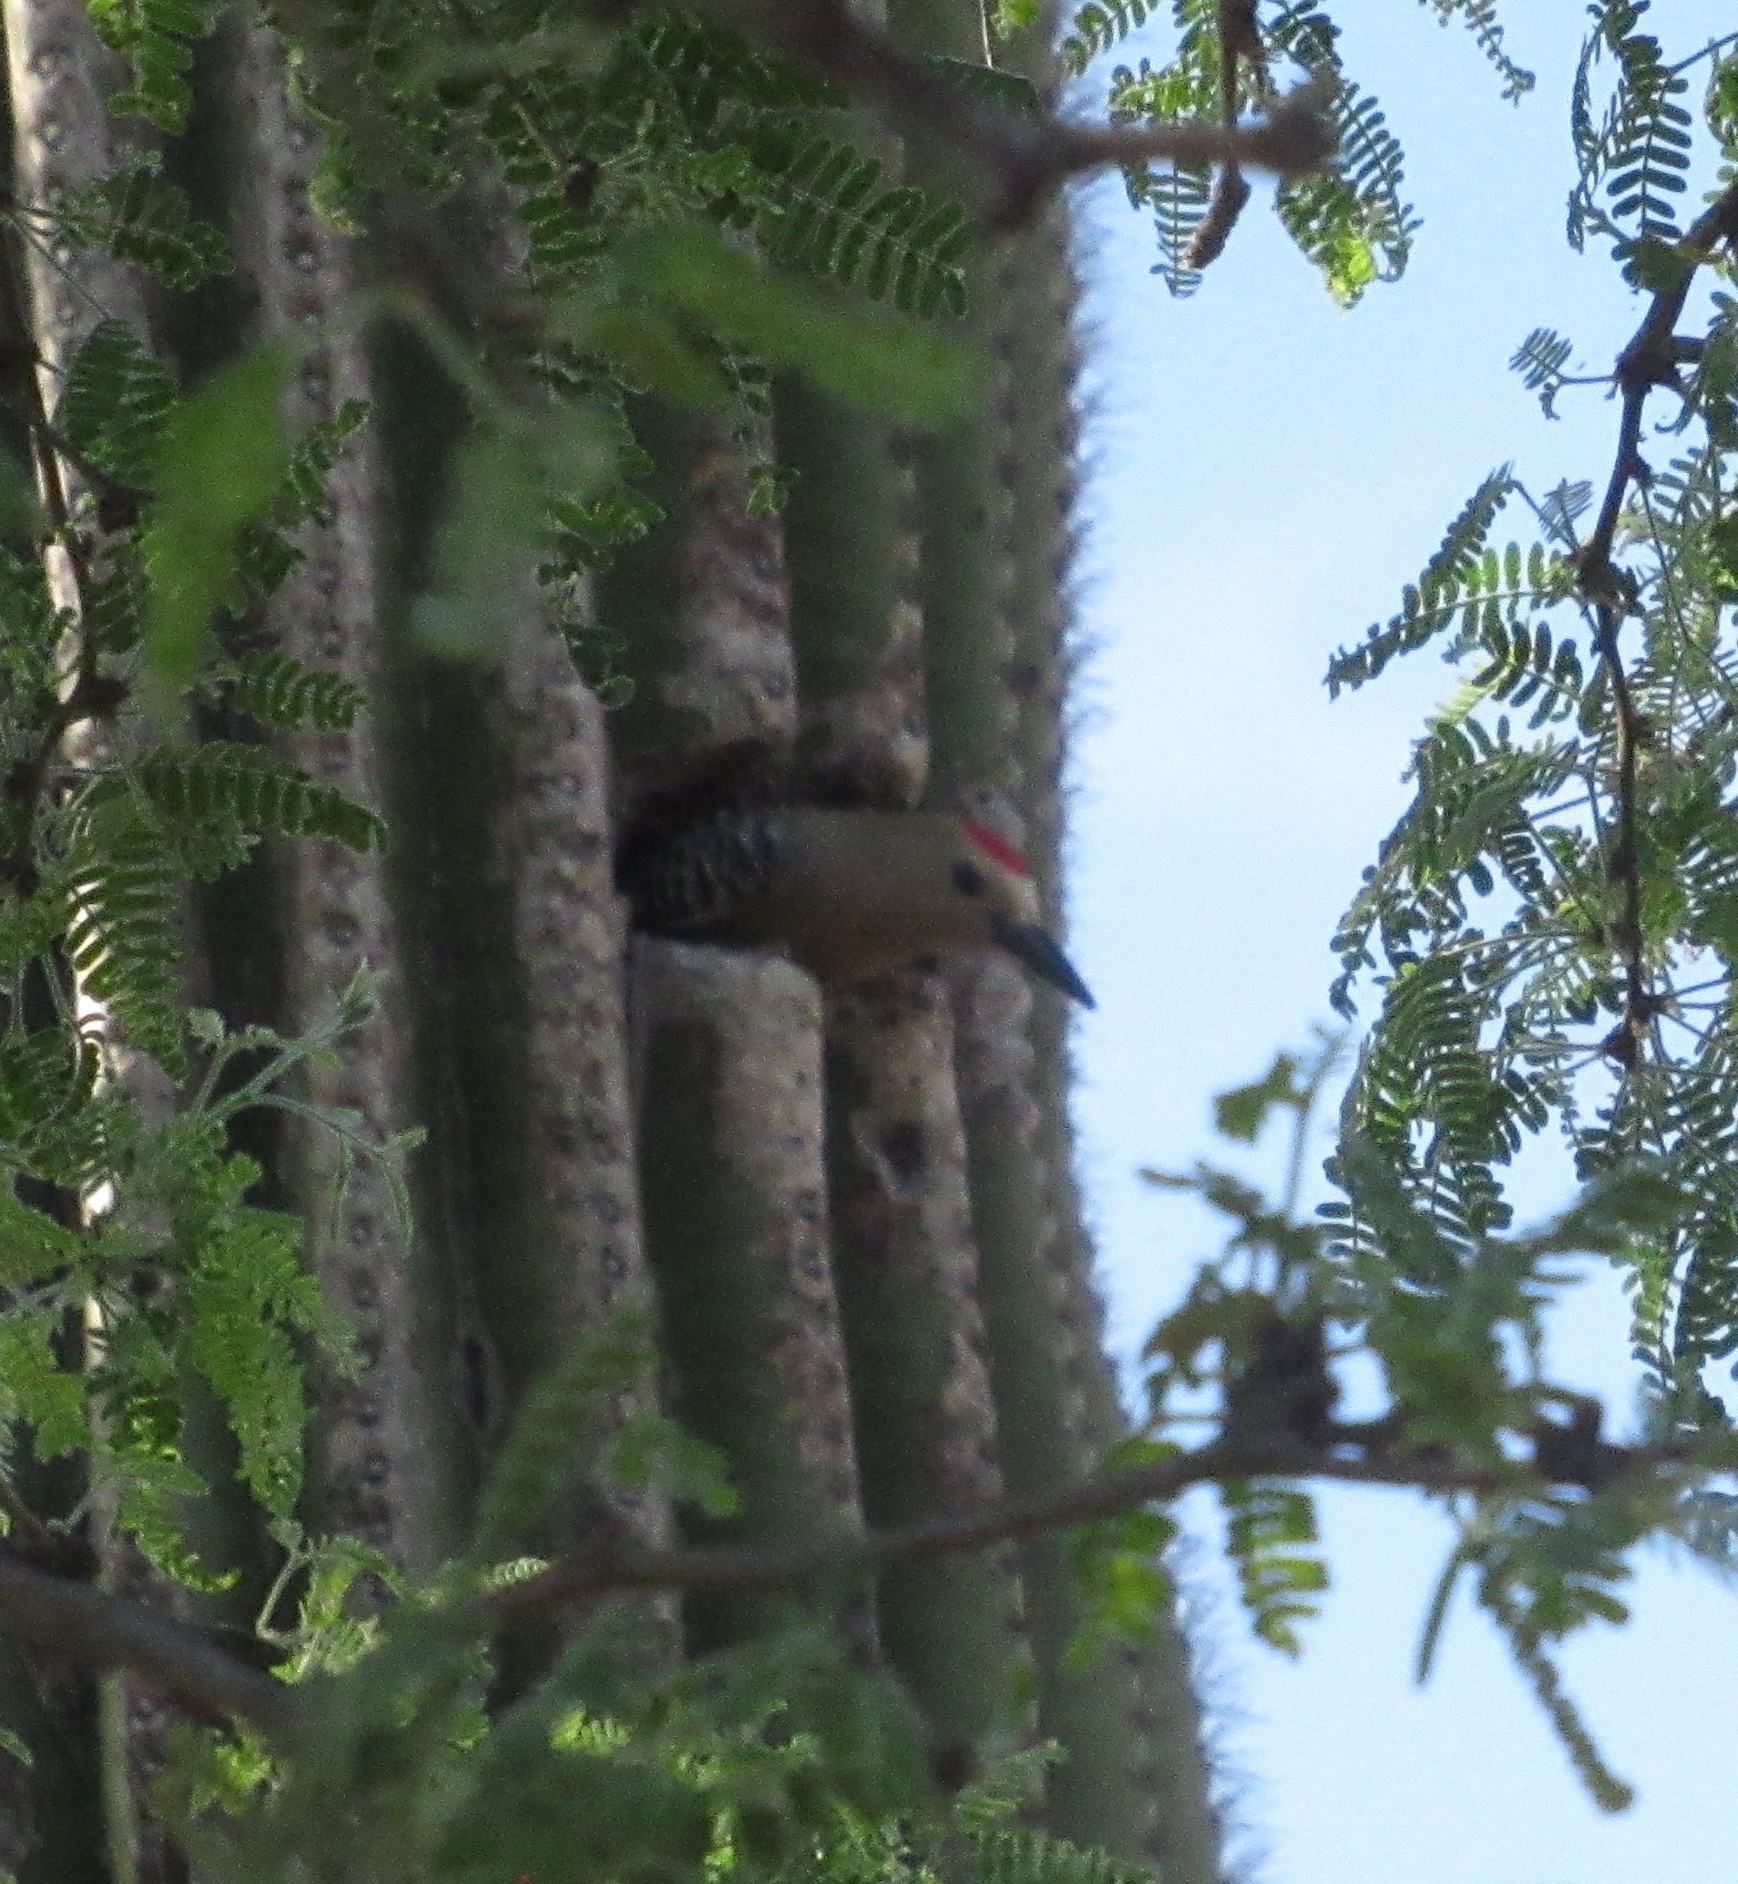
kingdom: Animalia
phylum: Chordata
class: Aves
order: Piciformes
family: Picidae
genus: Melanerpes
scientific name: Melanerpes uropygialis
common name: Gila woodpecker
